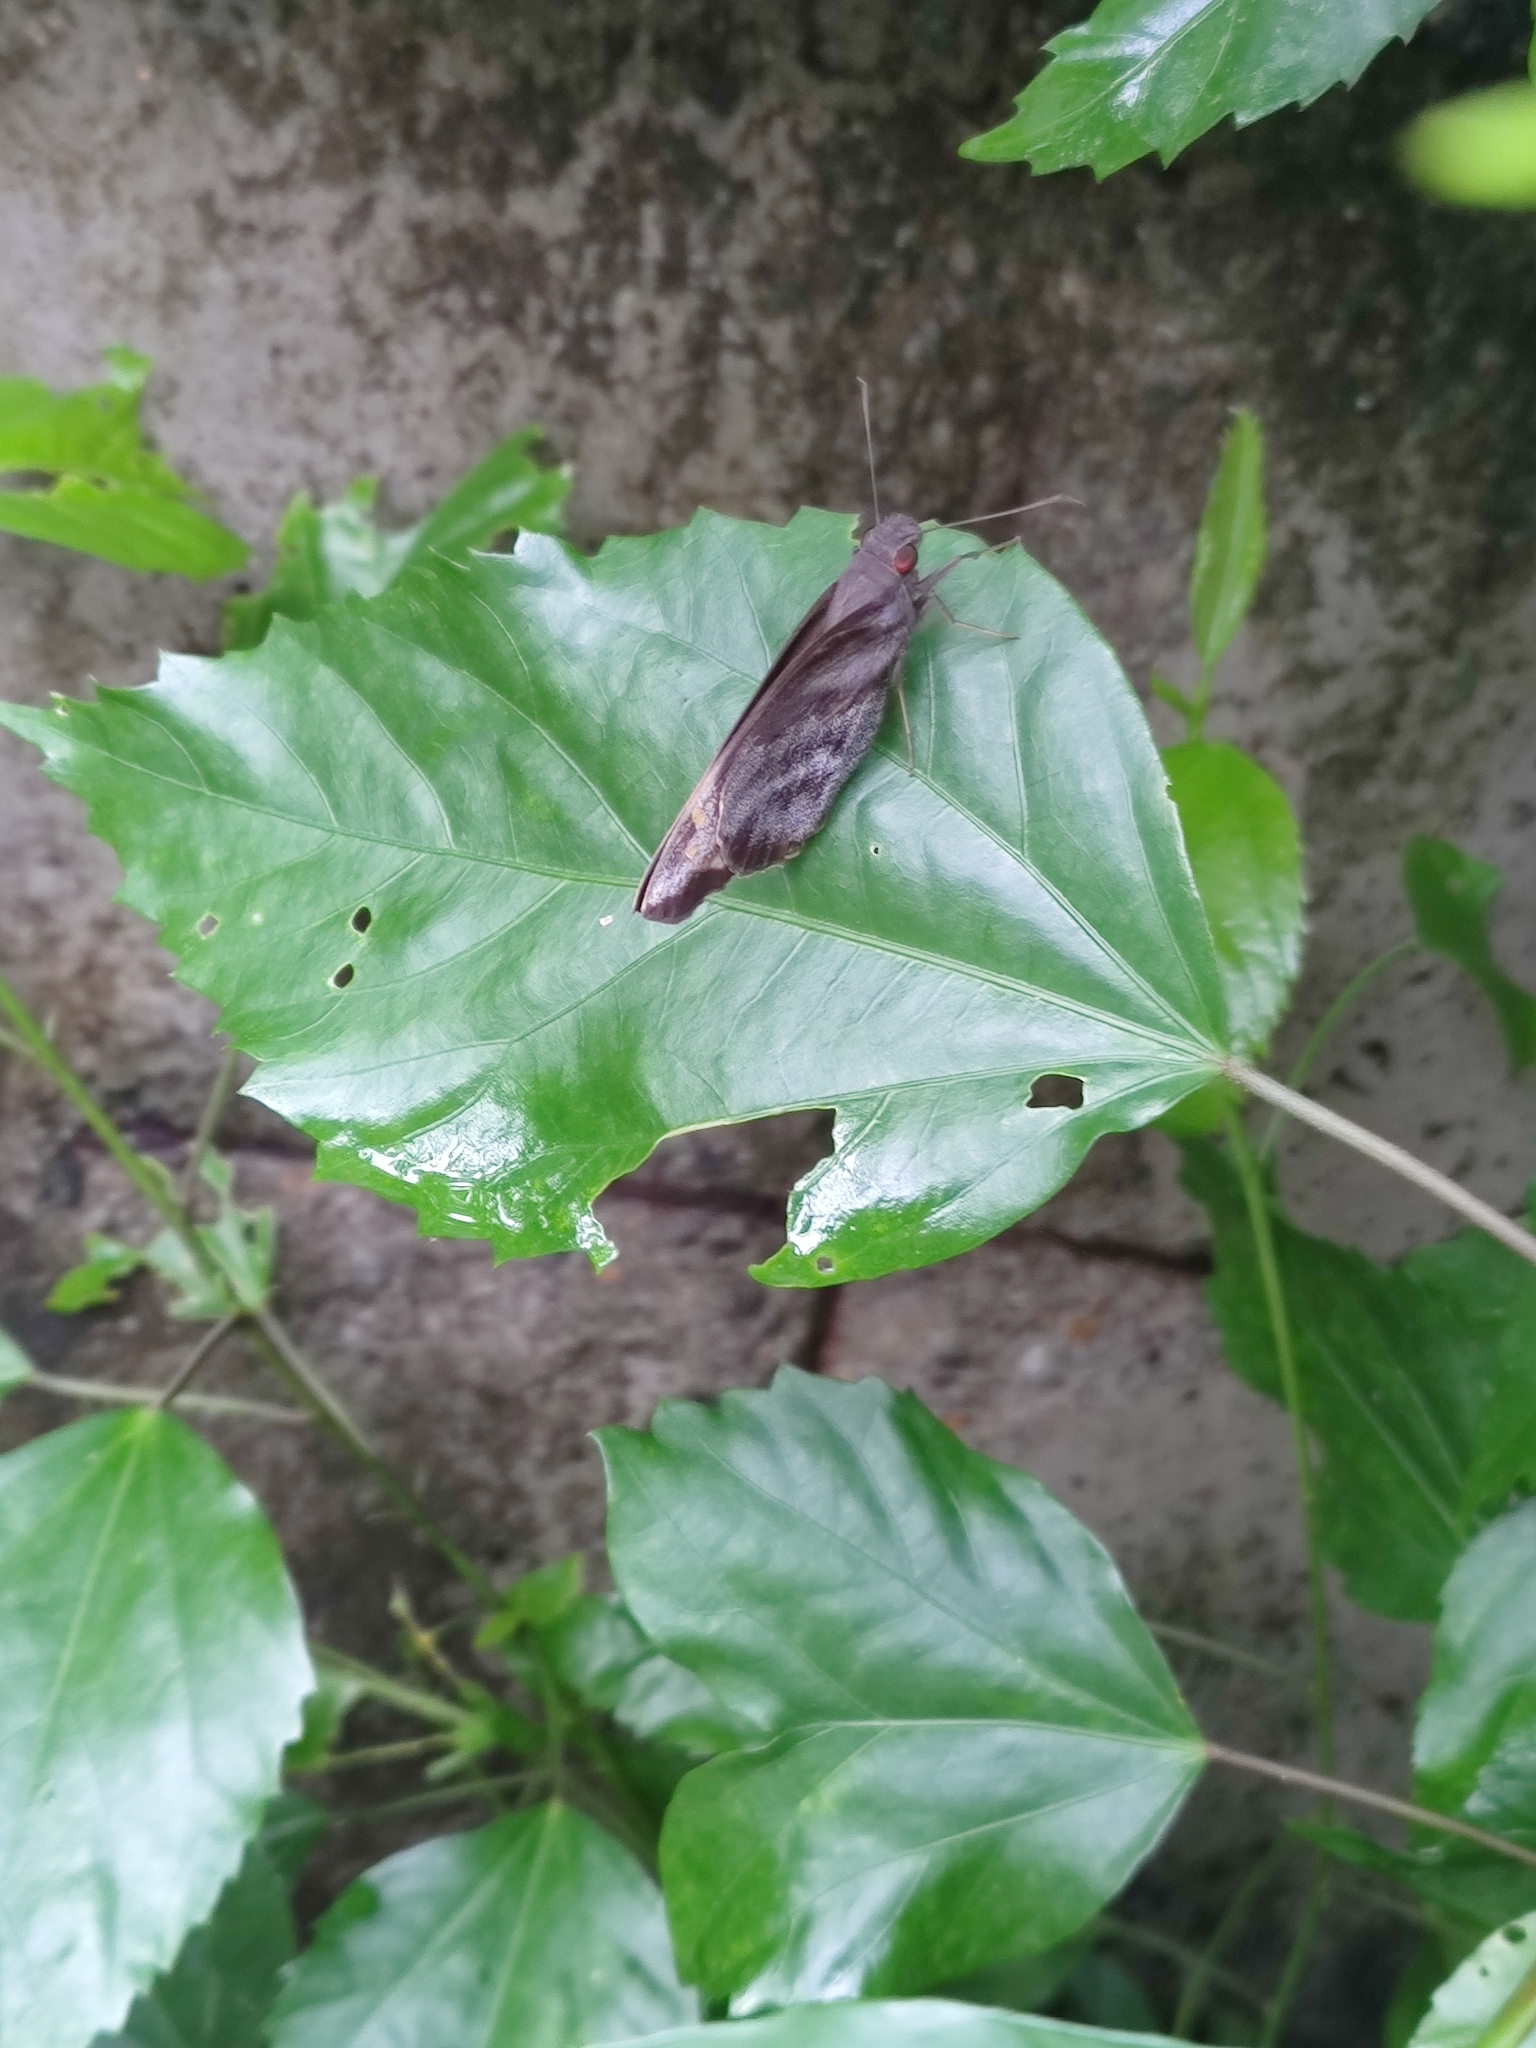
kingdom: Animalia
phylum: Arthropoda
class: Insecta
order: Lepidoptera
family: Hesperiidae
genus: Gangara
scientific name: Gangara thyrsis
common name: Giant redeye
